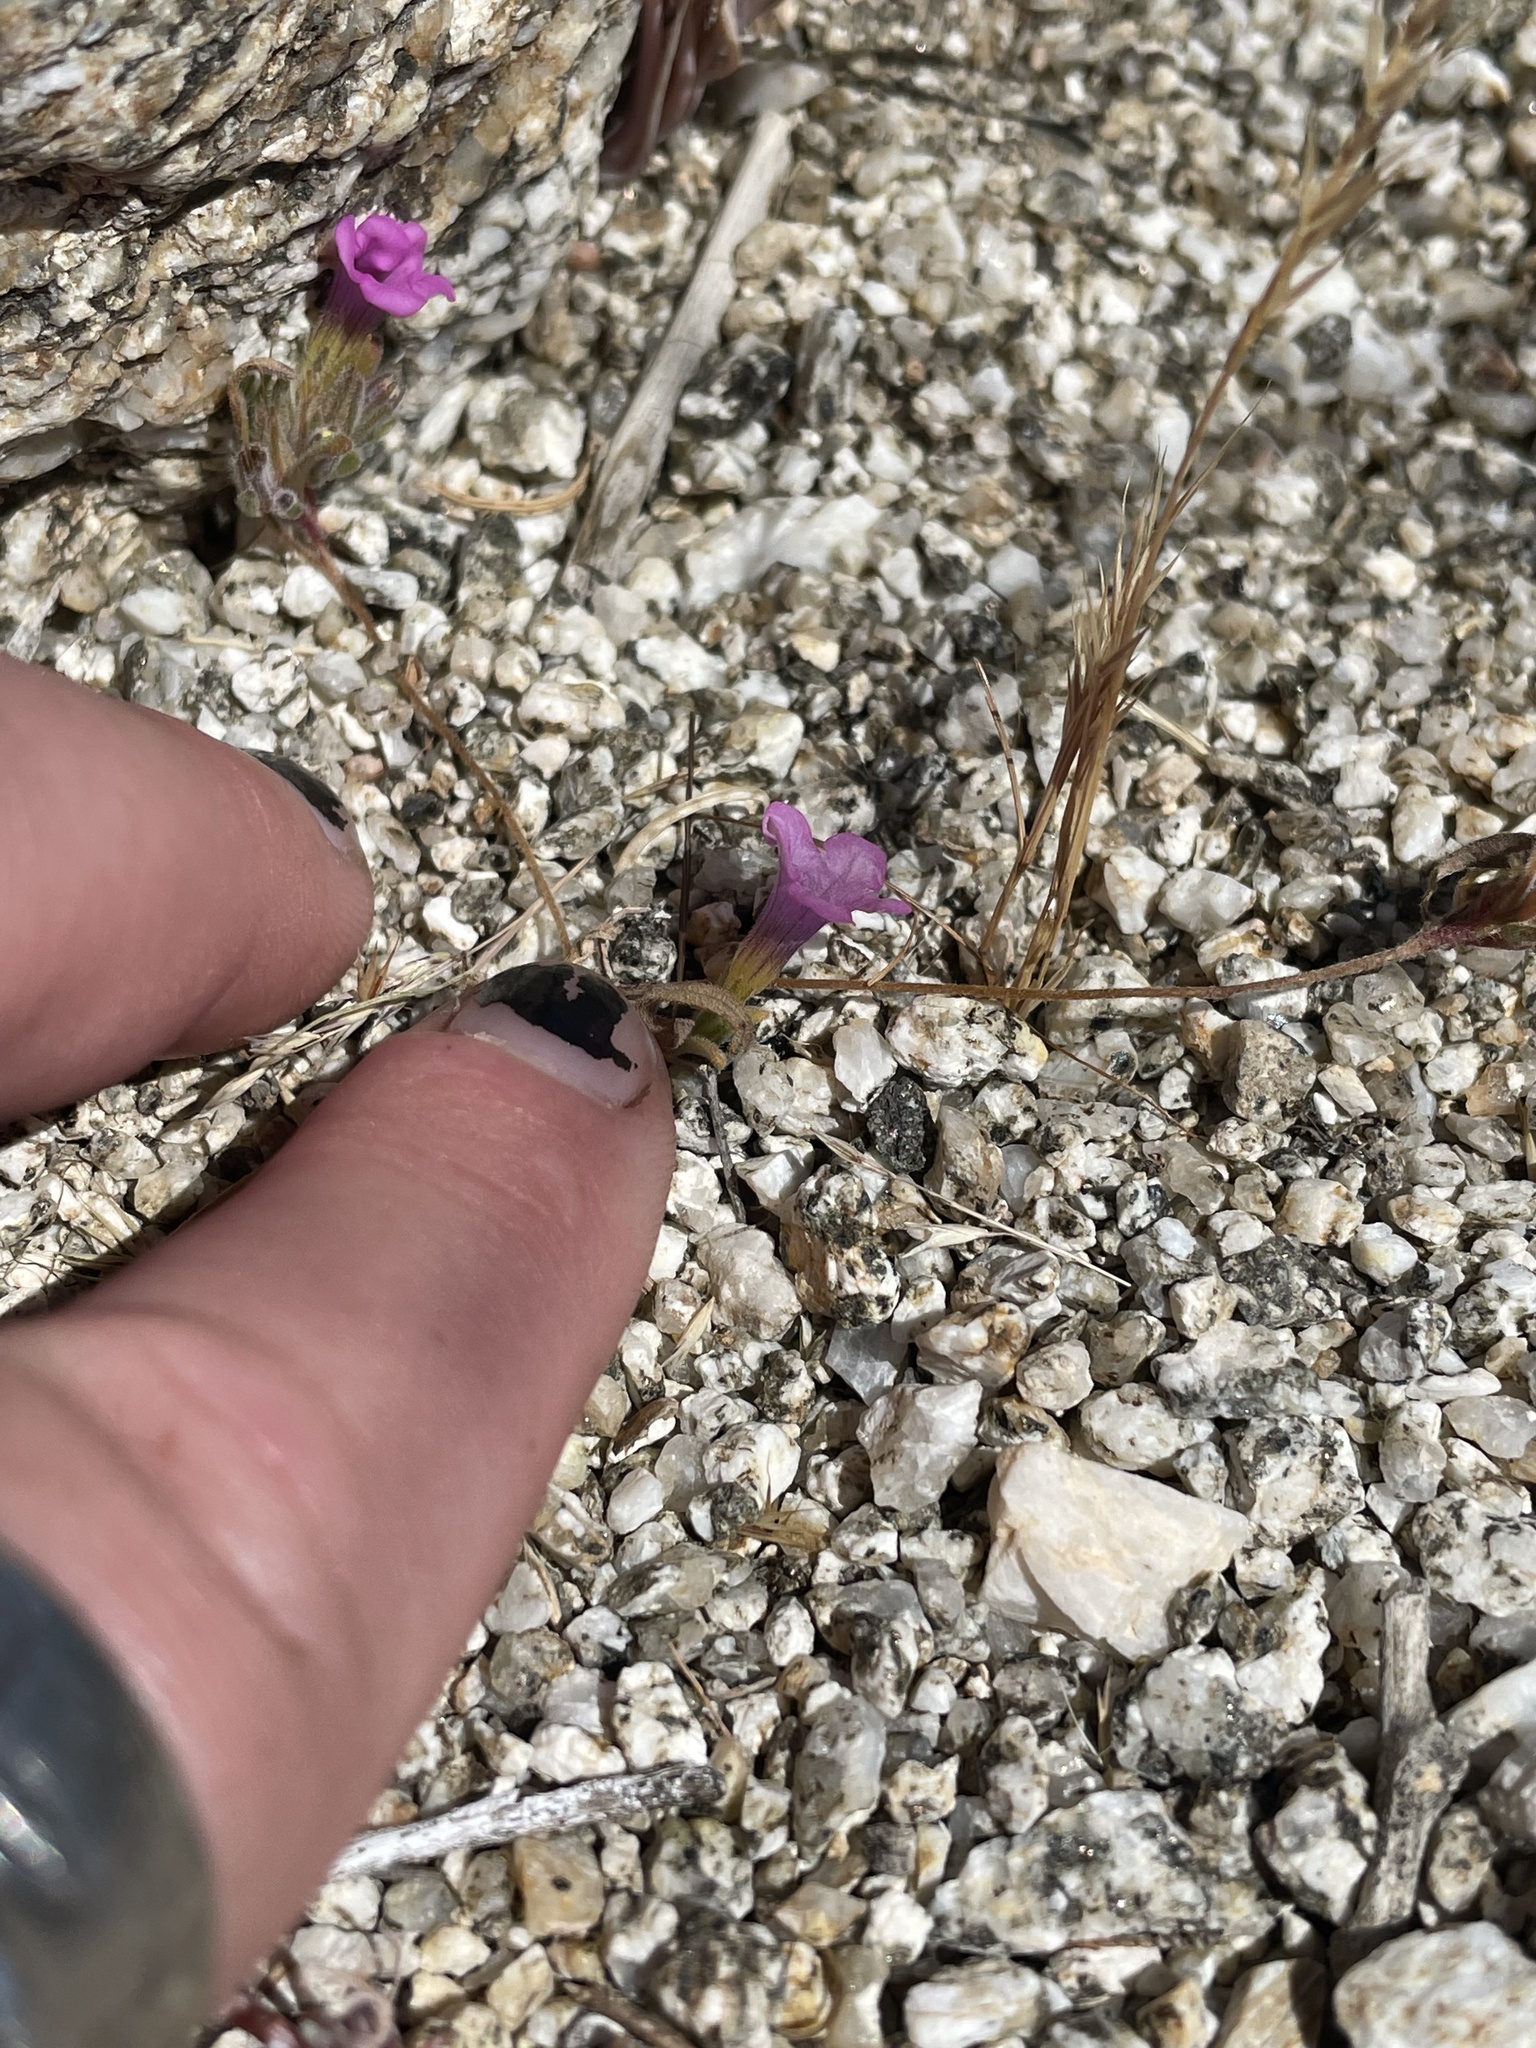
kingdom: Plantae
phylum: Tracheophyta
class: Magnoliopsida
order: Boraginales
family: Namaceae
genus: Nama
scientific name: Nama demissa
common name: Leafy nama
